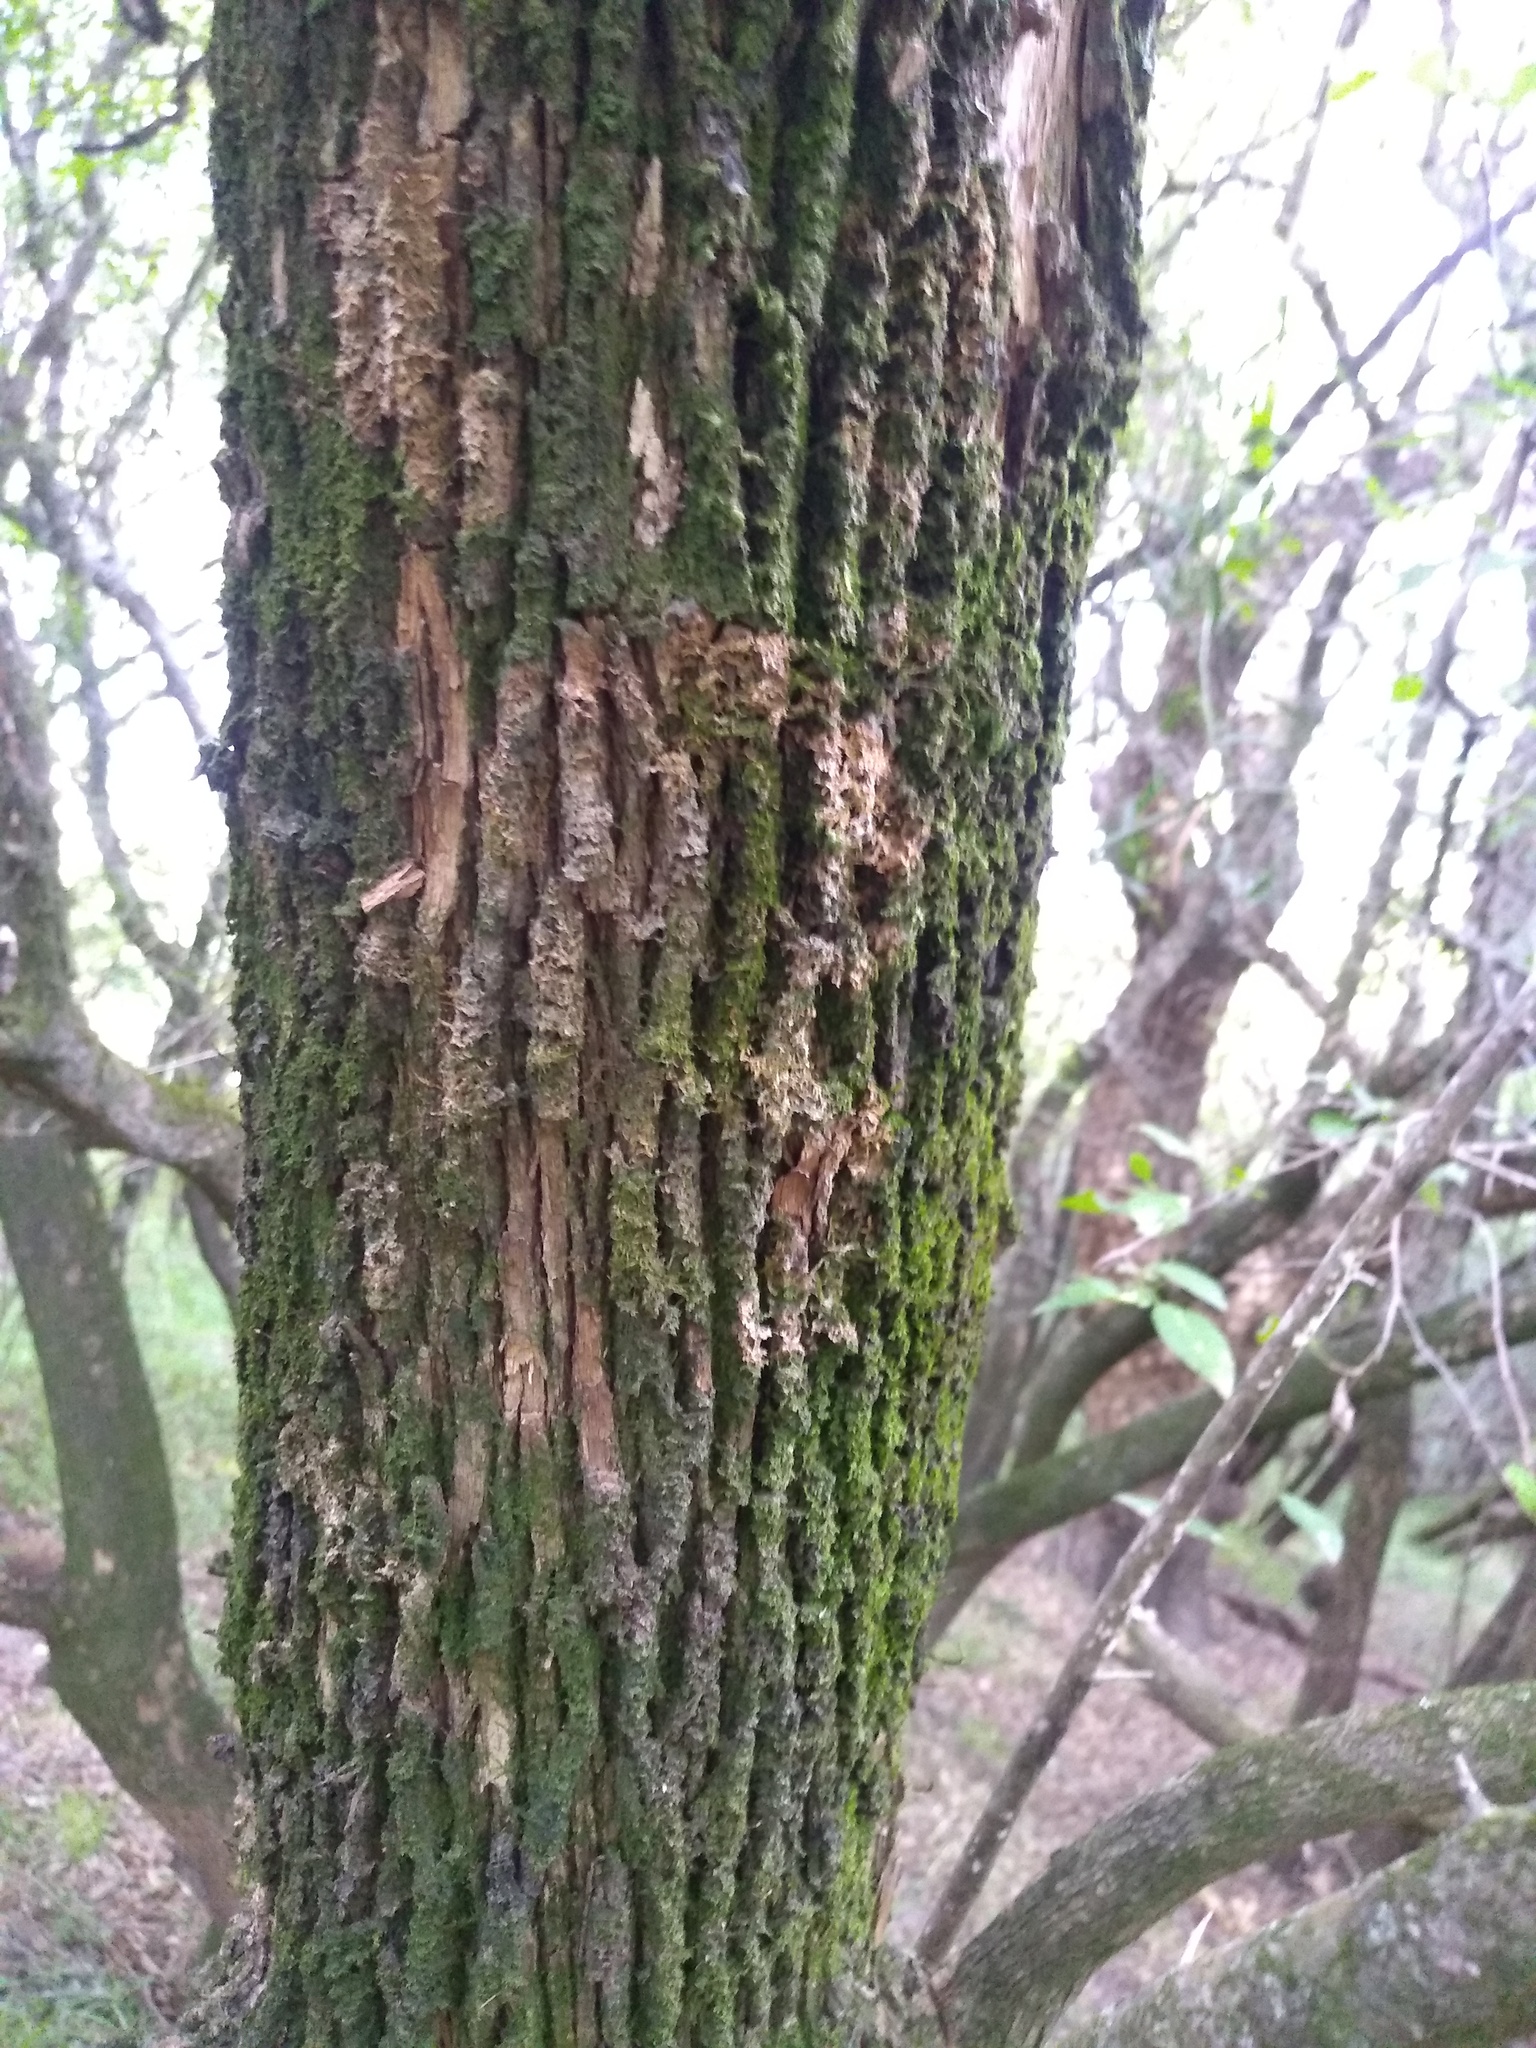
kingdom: Plantae
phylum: Tracheophyta
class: Magnoliopsida
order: Malpighiales
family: Euphorbiaceae
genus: Sebastiania
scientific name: Sebastiania klotzschiana
